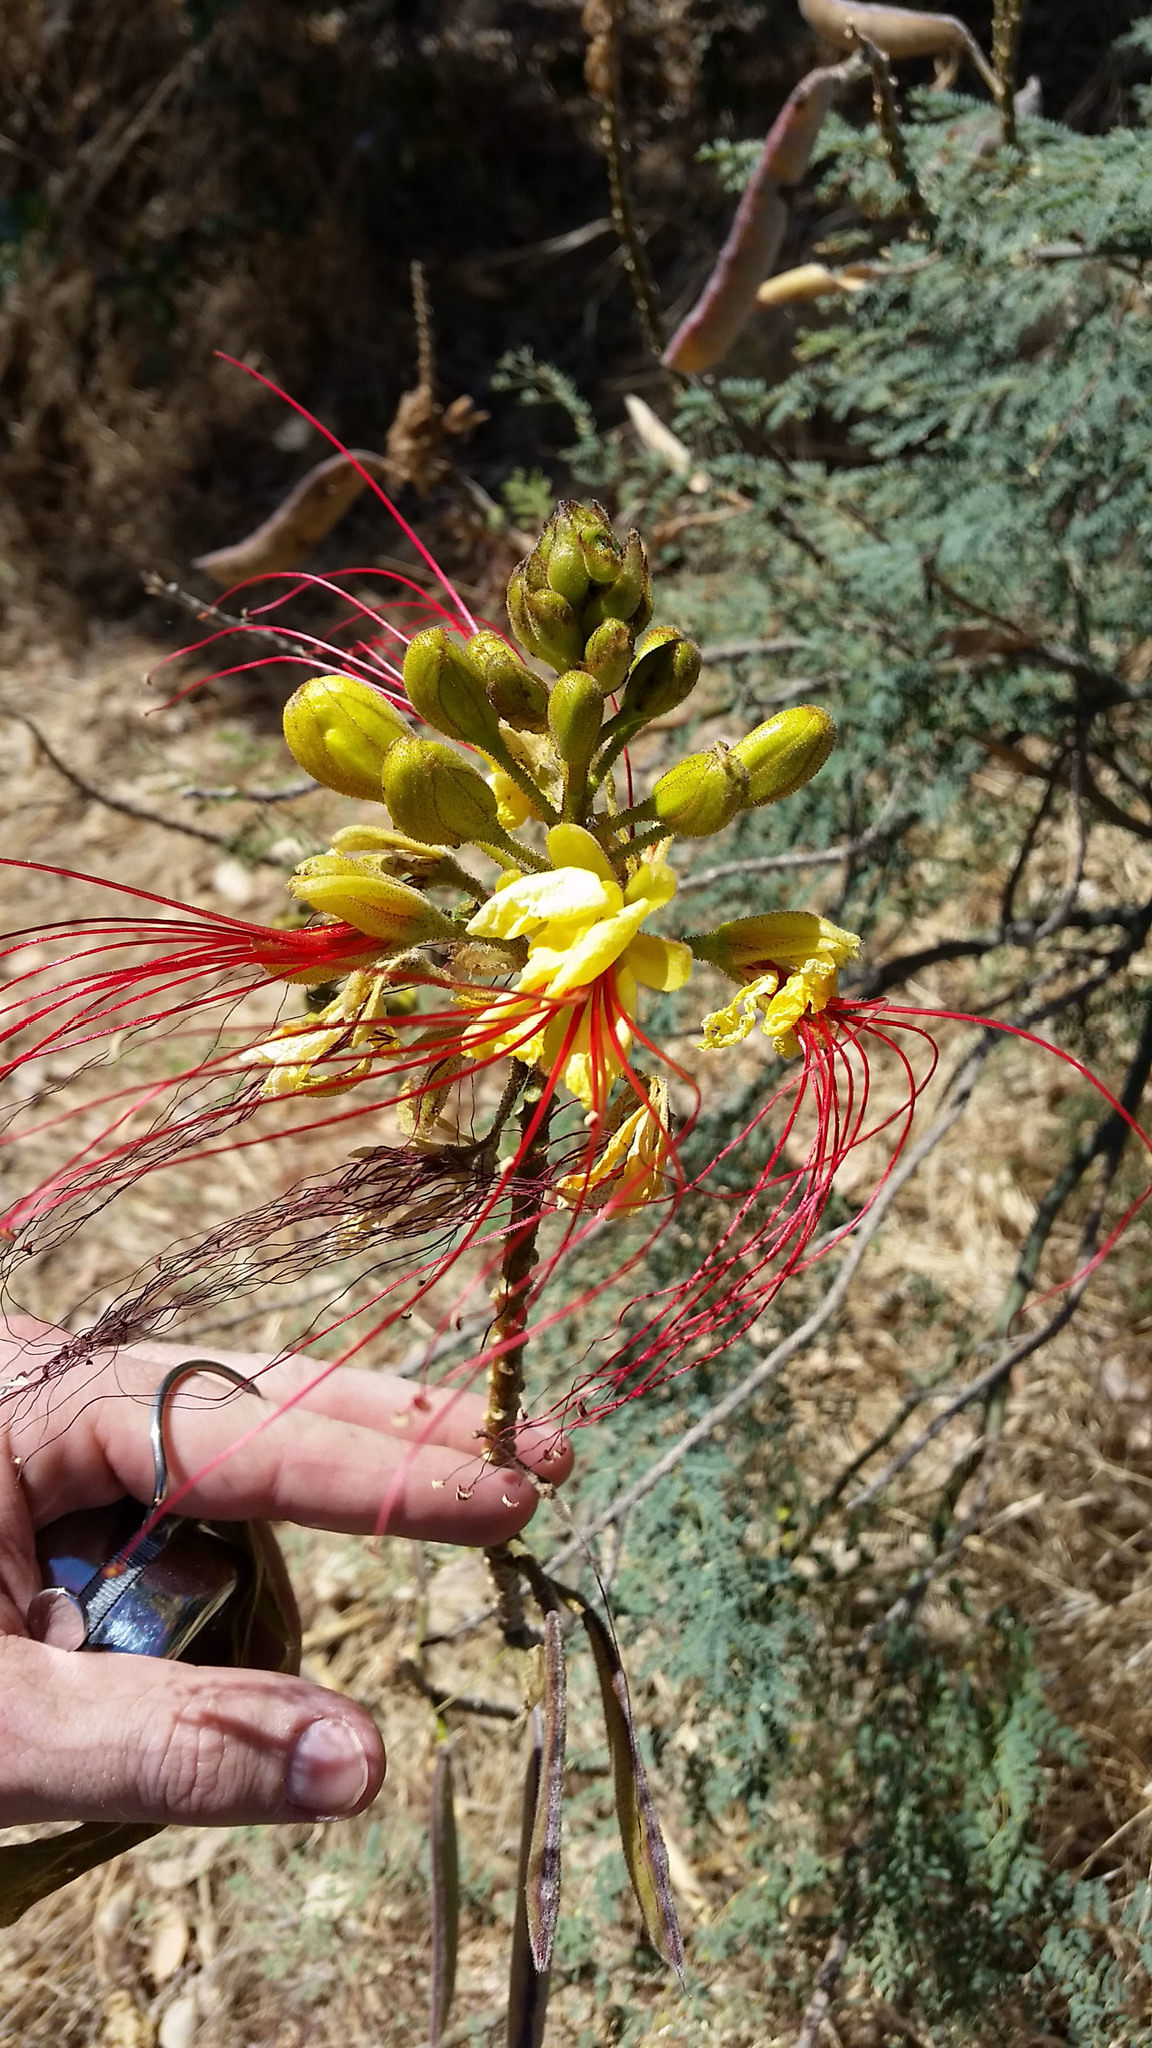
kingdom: Plantae
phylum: Tracheophyta
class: Magnoliopsida
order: Fabales
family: Fabaceae
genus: Erythrostemon
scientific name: Erythrostemon gilliesii
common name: Bird-of-paradise shrub
